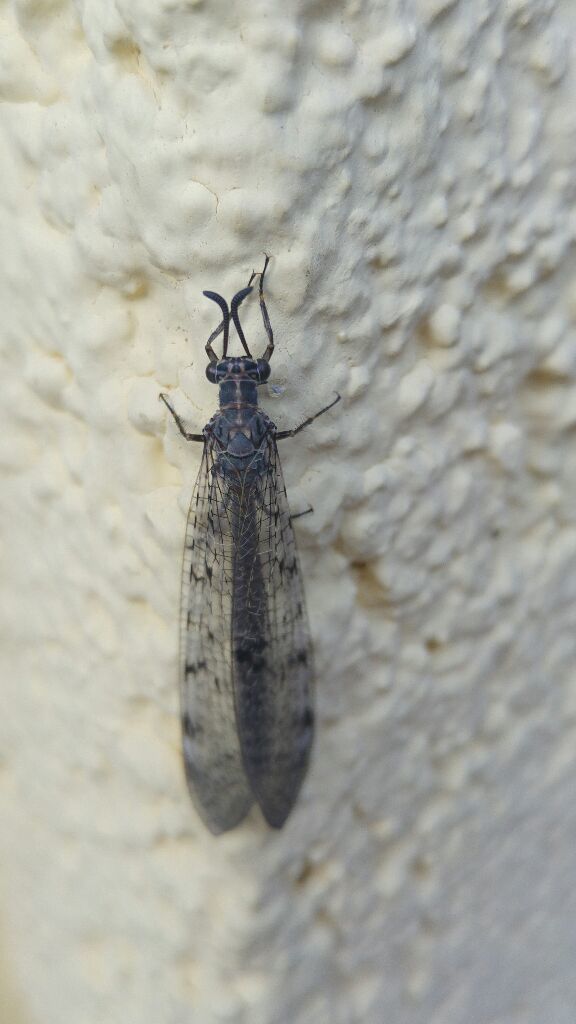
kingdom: Animalia
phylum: Arthropoda
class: Insecta
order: Neuroptera
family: Myrmeleontidae
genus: Euroleon
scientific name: Euroleon nostras
